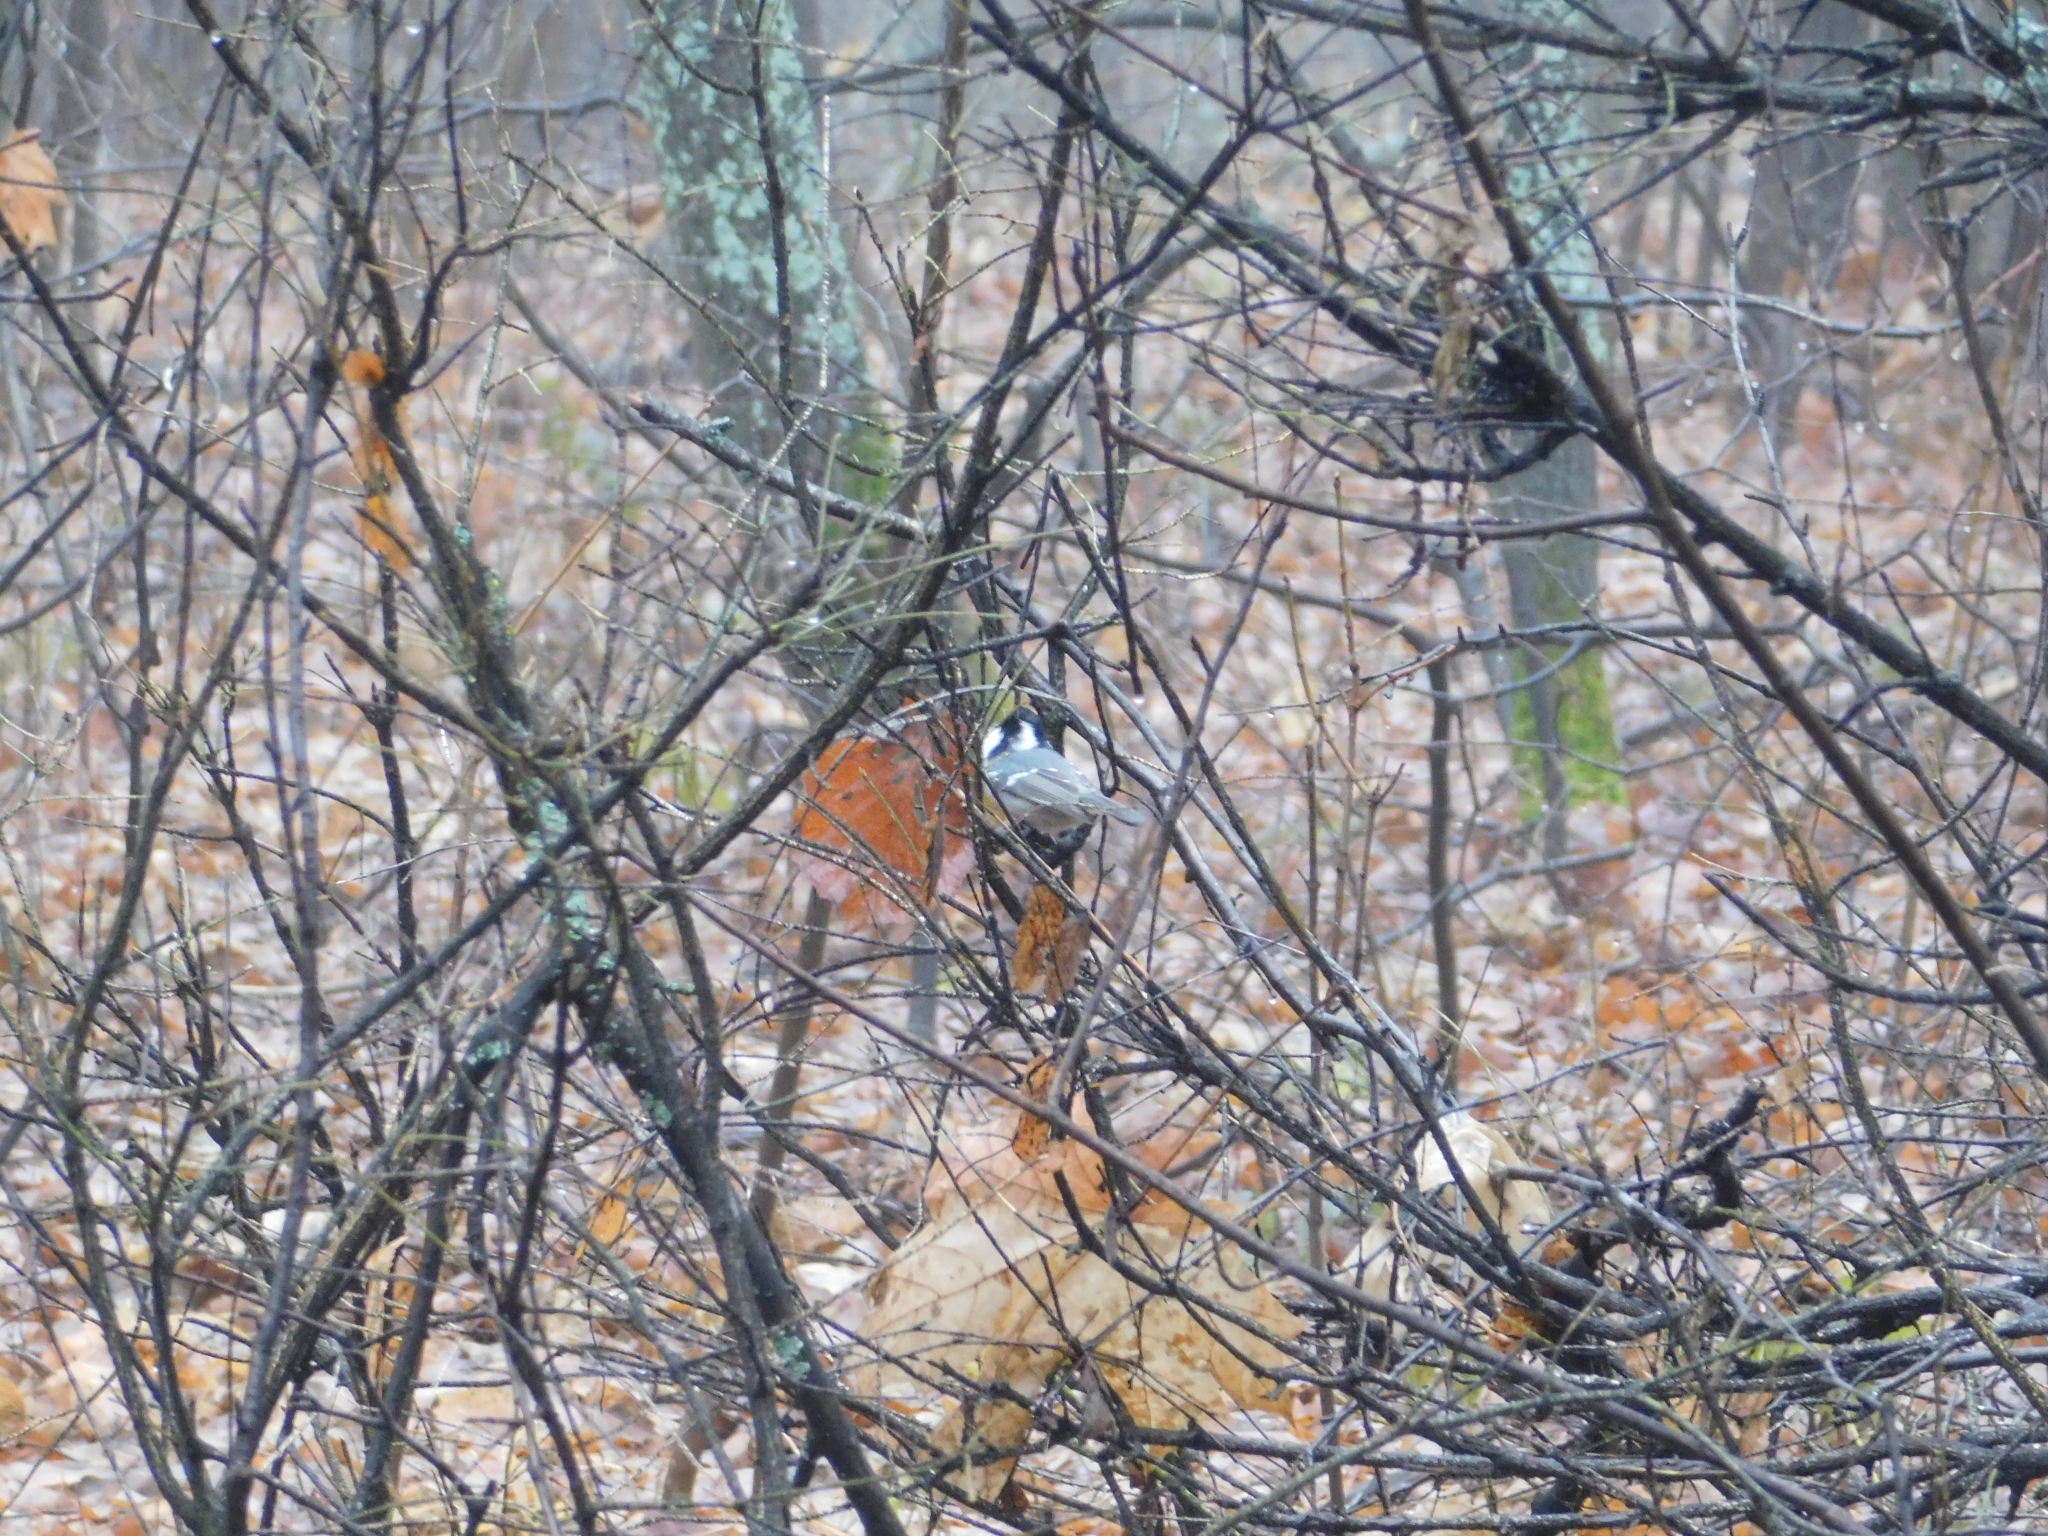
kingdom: Animalia
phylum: Chordata
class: Aves
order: Passeriformes
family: Paridae
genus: Periparus
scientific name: Periparus ater
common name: Coal tit
